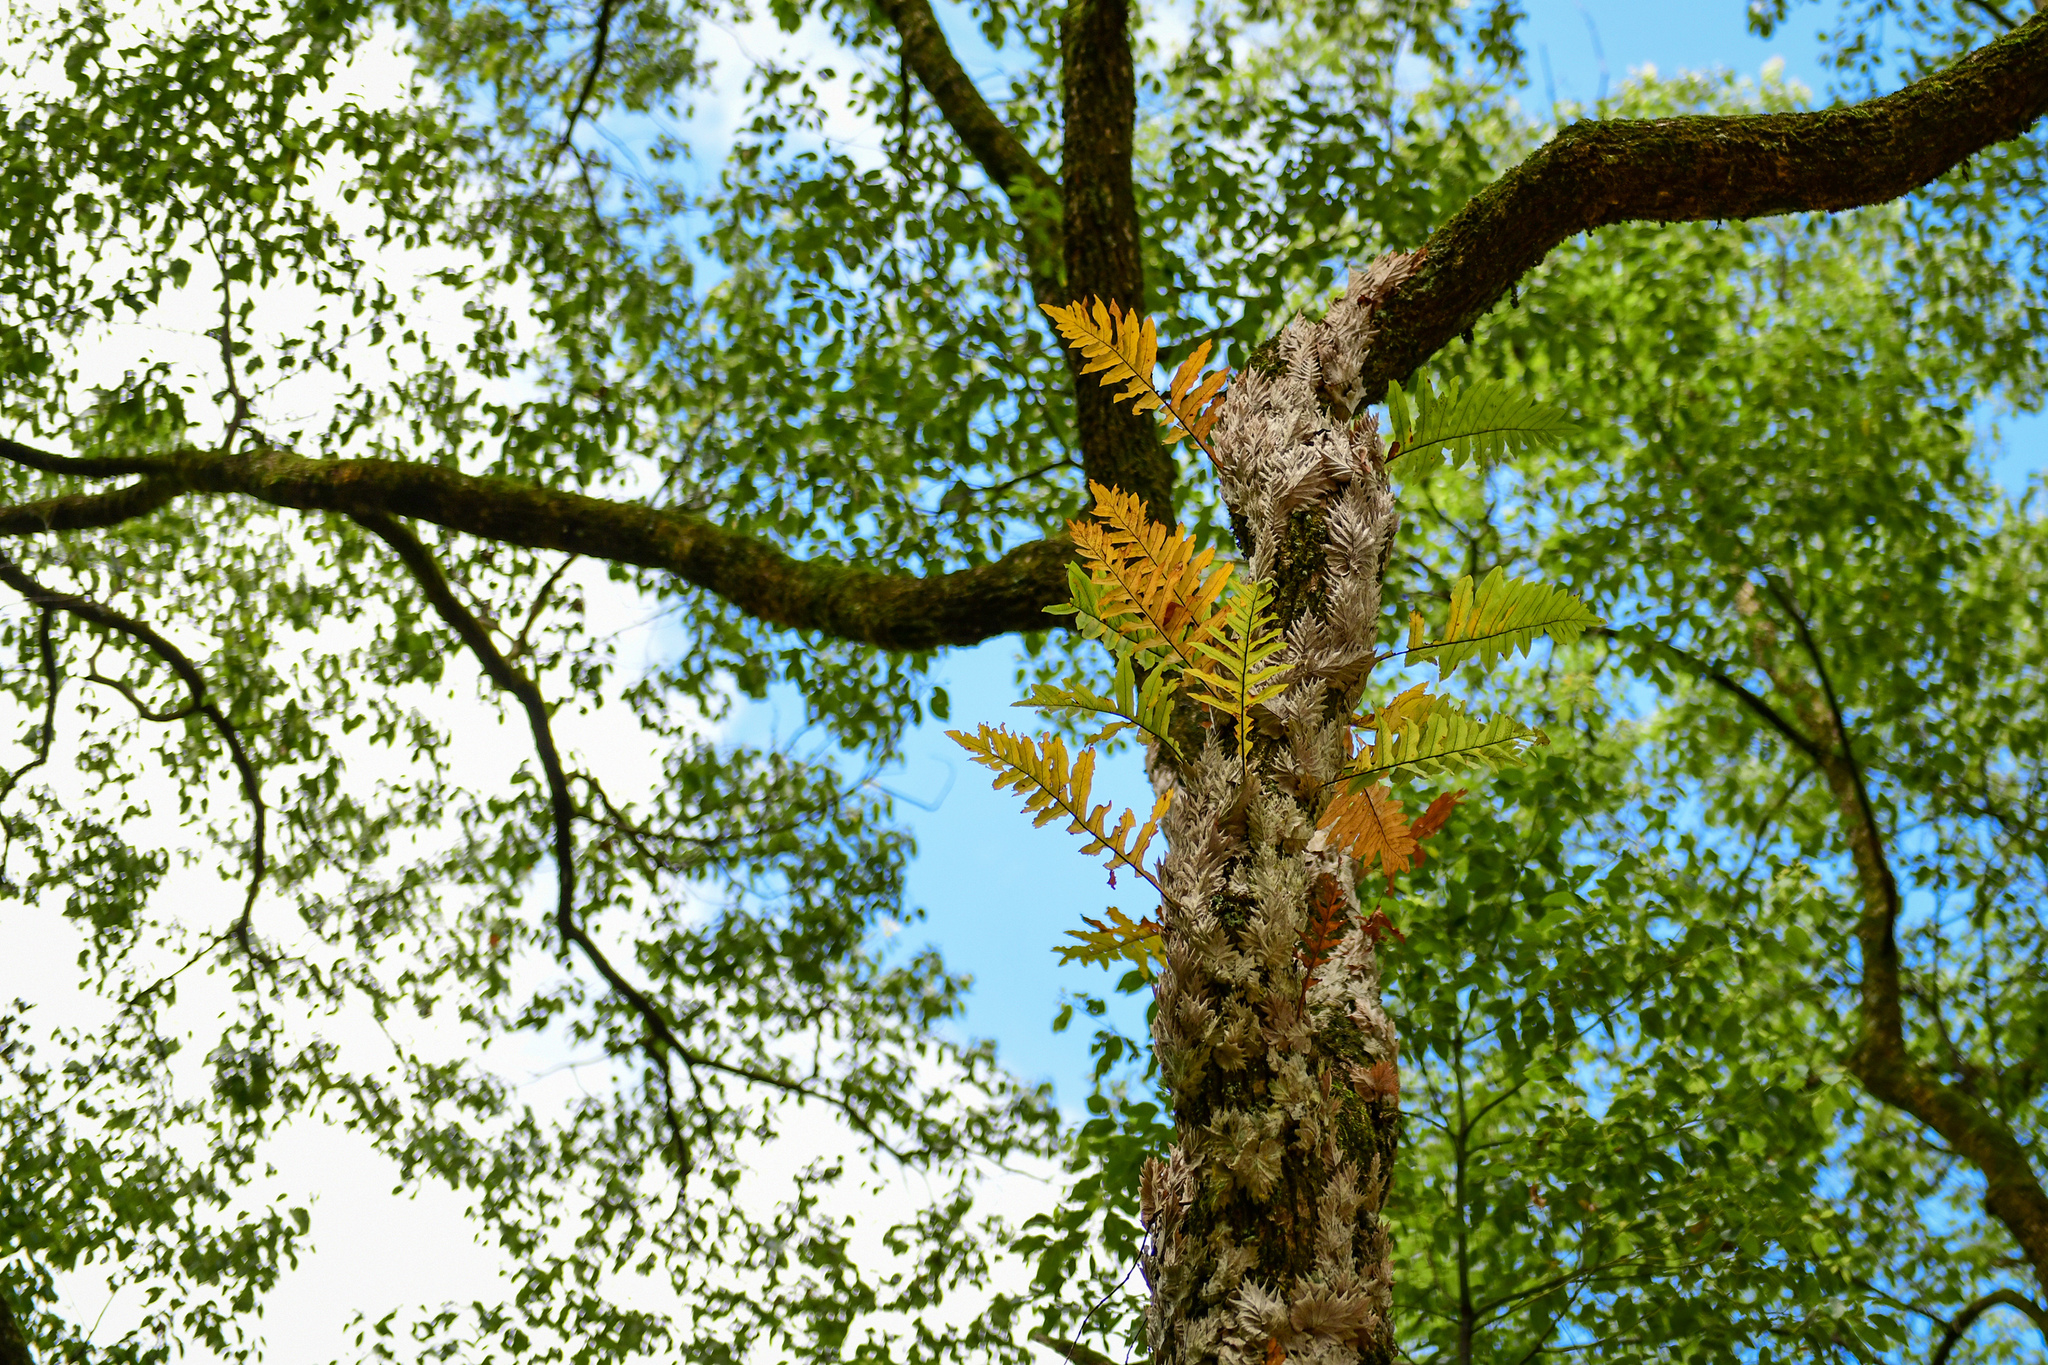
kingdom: Plantae
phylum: Tracheophyta
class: Polypodiopsida
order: Polypodiales
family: Polypodiaceae
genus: Drynaria
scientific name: Drynaria roosii
